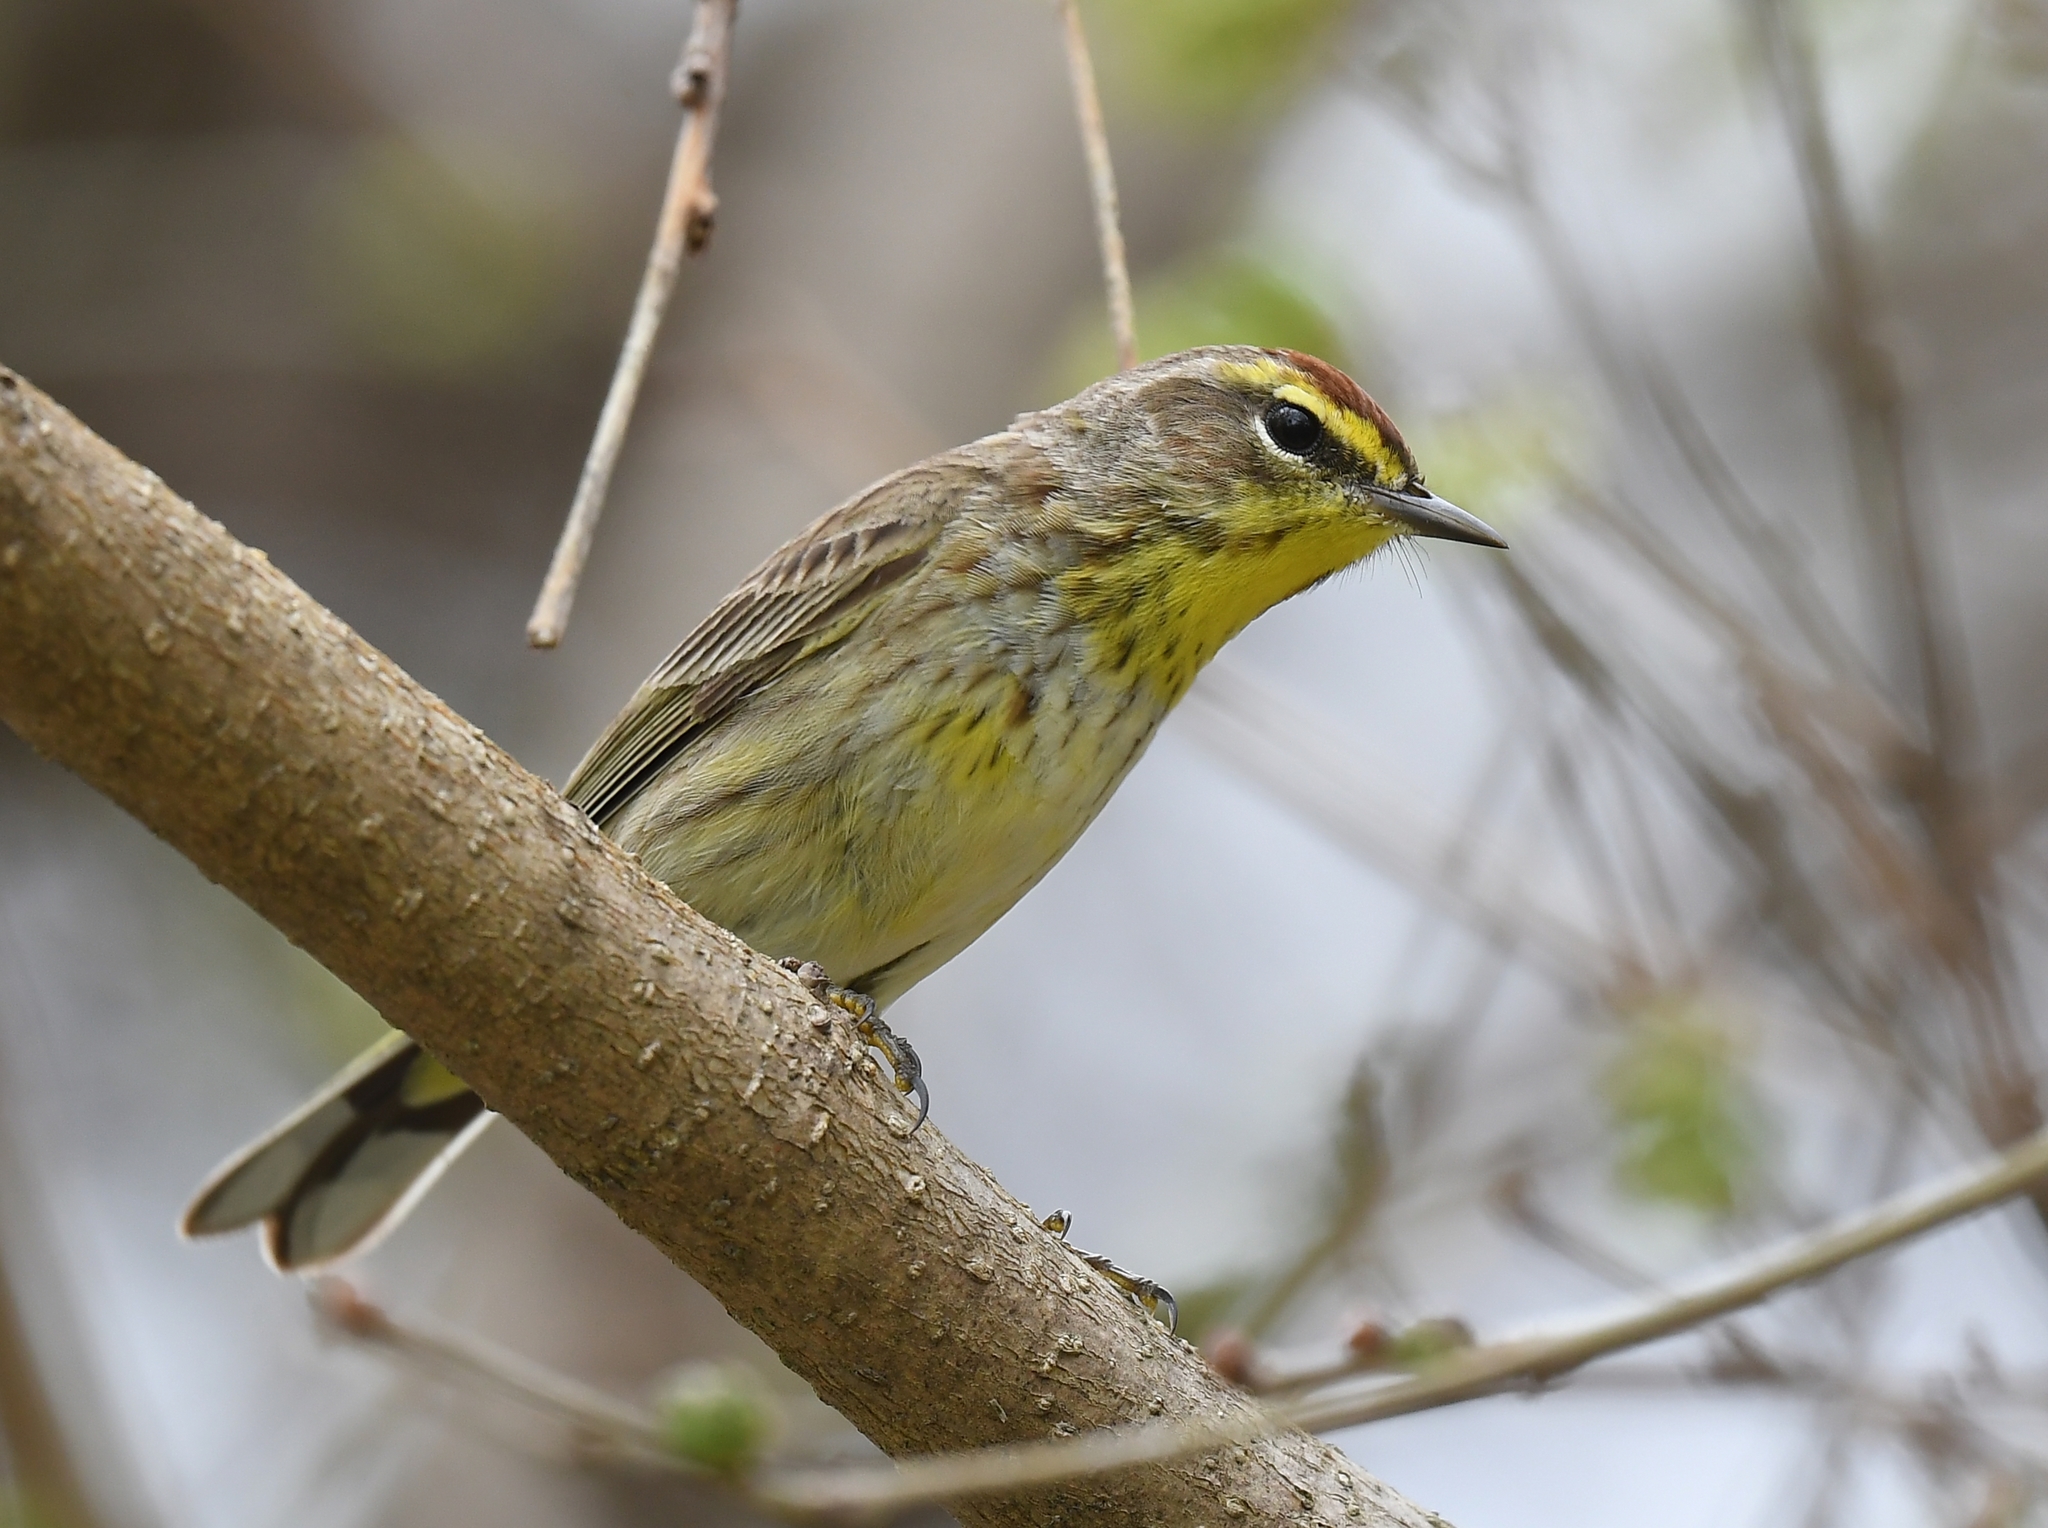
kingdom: Animalia
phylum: Chordata
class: Aves
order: Passeriformes
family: Parulidae
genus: Setophaga
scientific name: Setophaga palmarum
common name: Palm warbler
